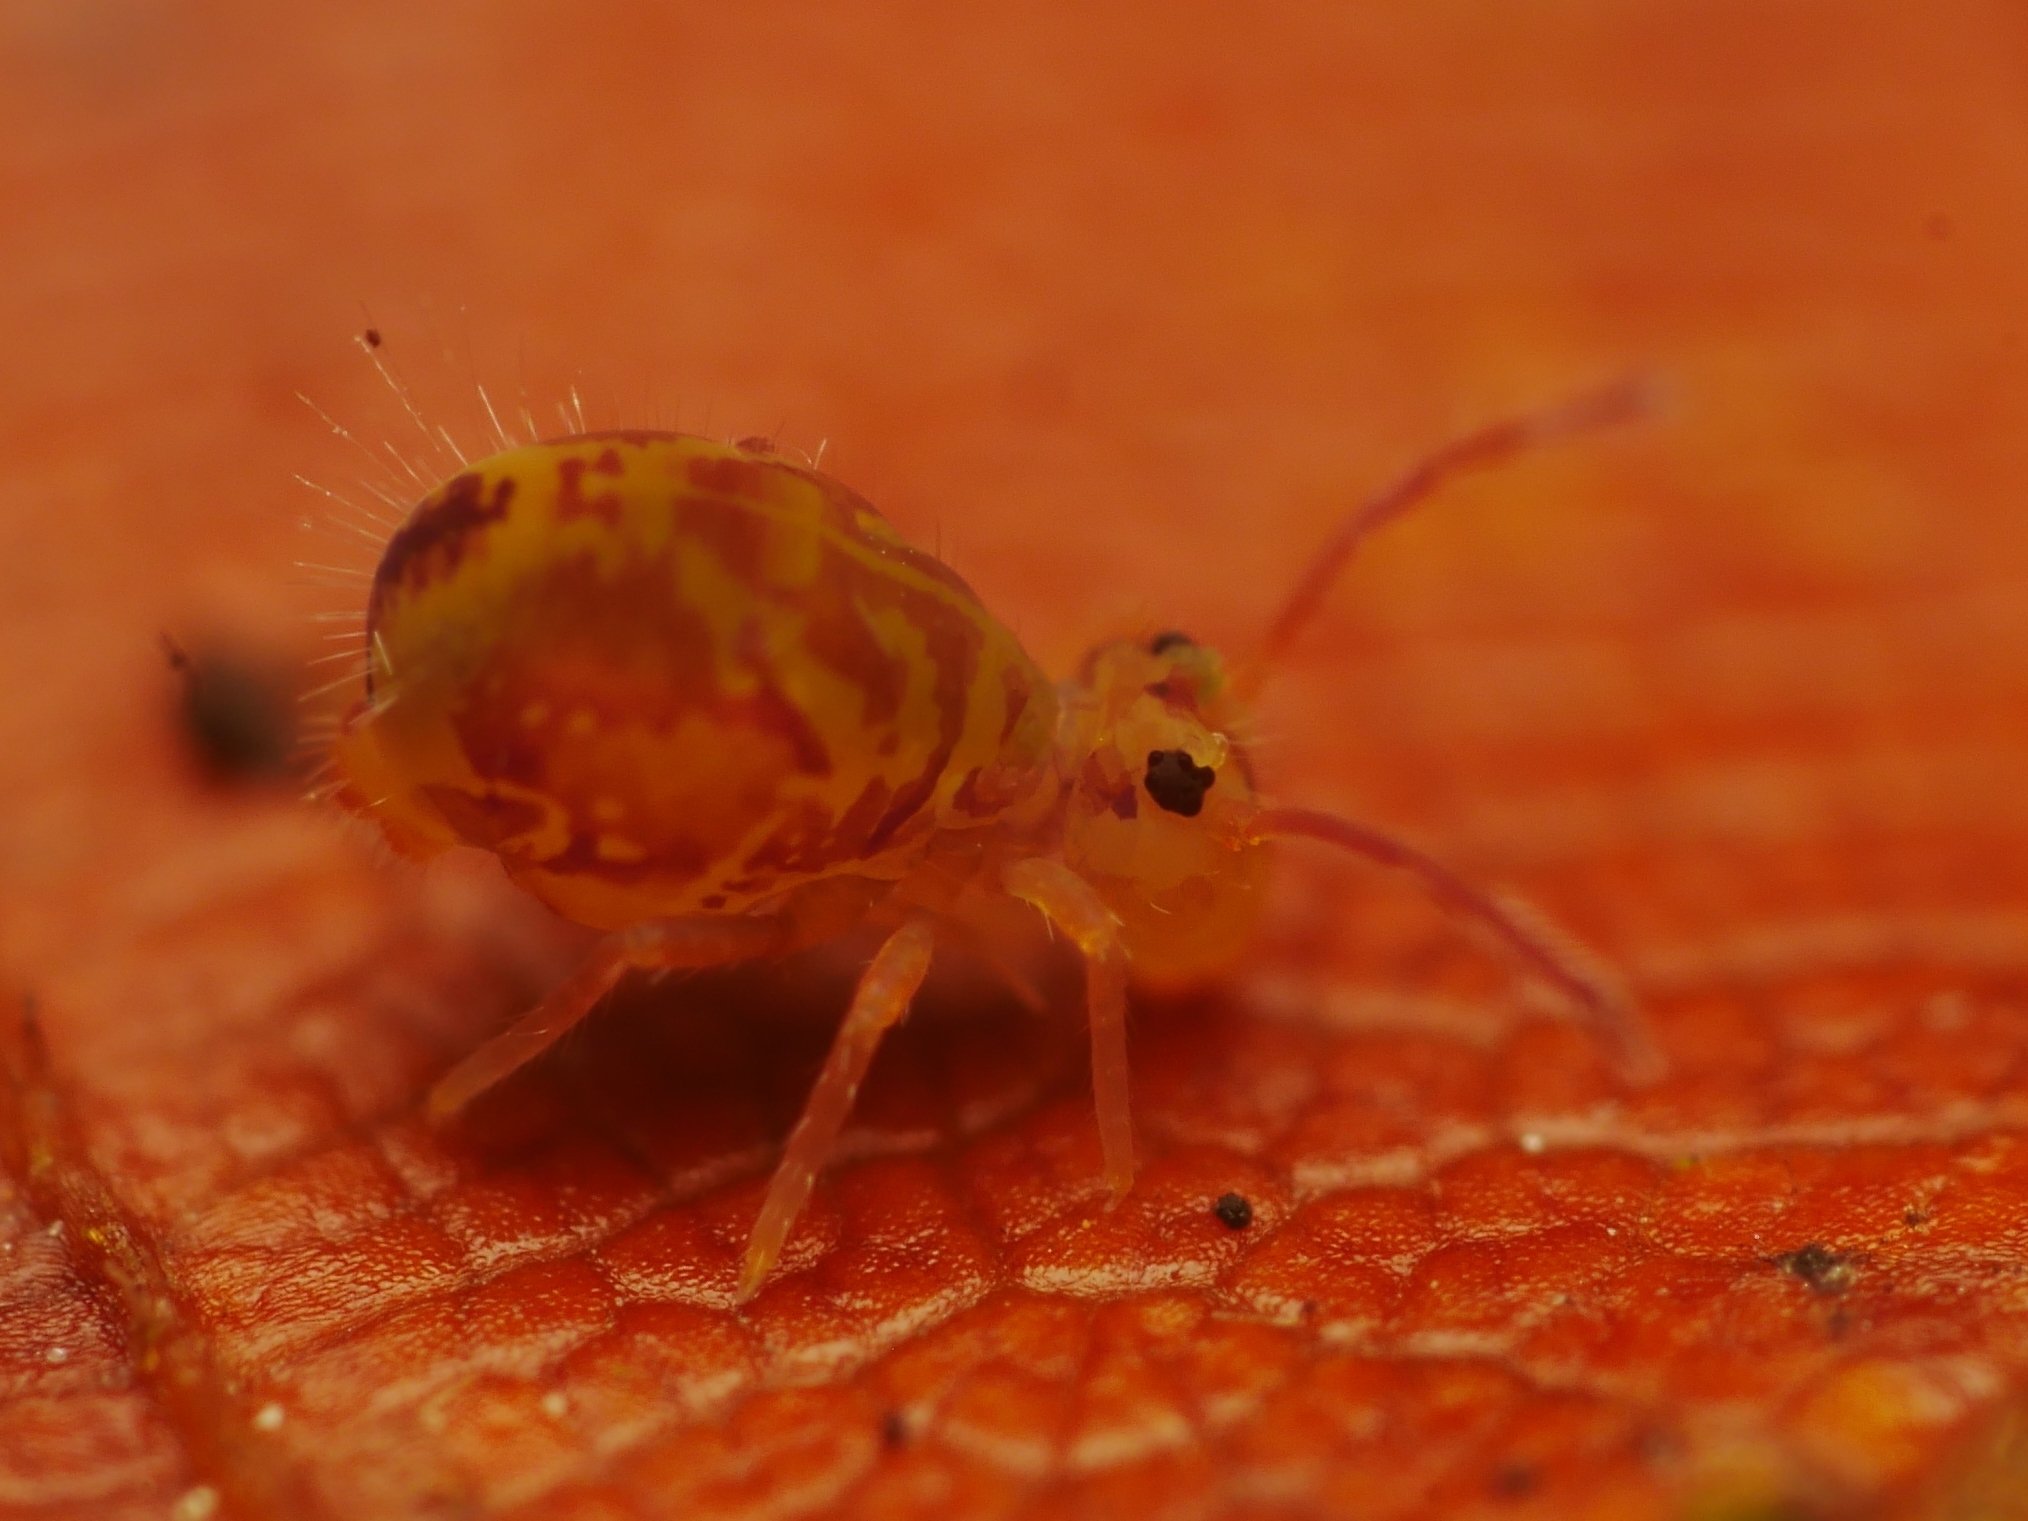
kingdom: Animalia
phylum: Arthropoda
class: Collembola
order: Symphypleona
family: Dicyrtomidae
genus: Dicyrtomina
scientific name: Dicyrtomina saundersi
